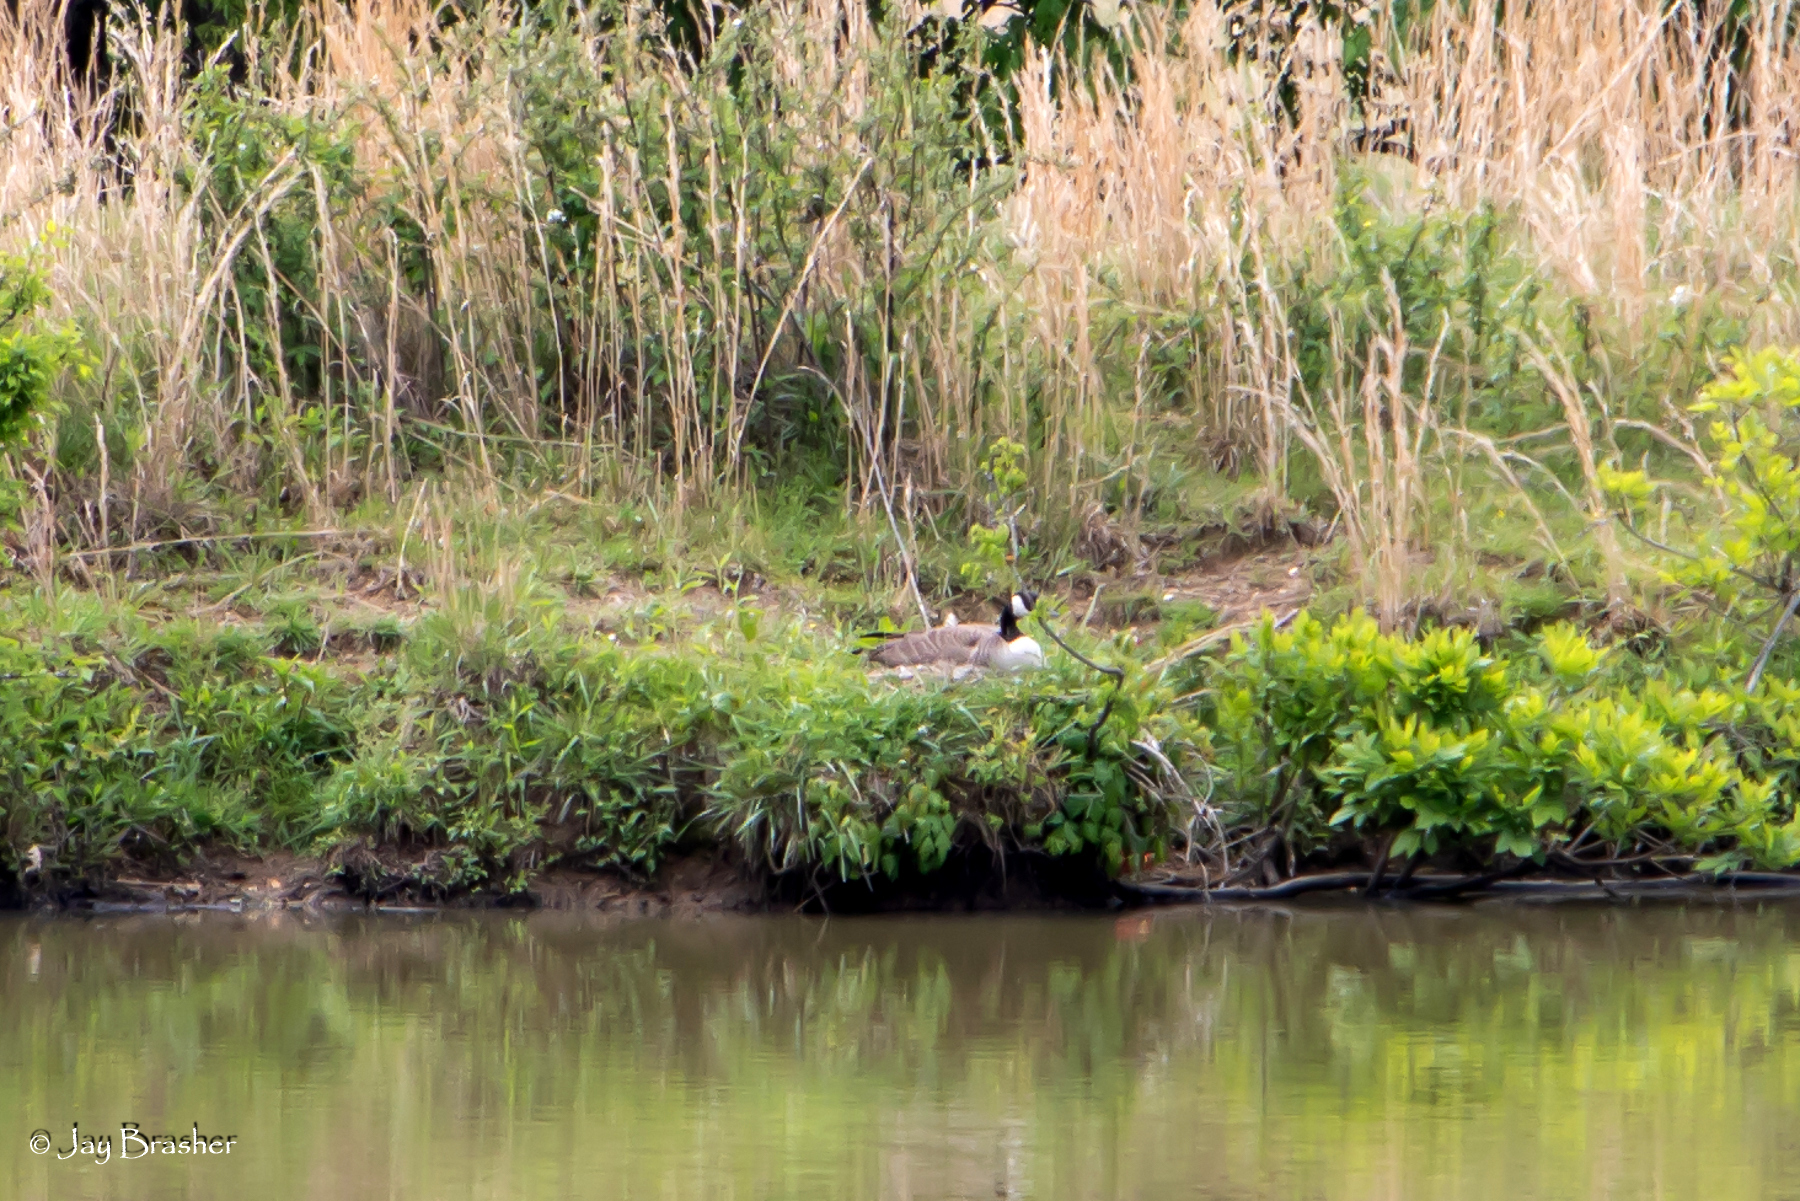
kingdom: Animalia
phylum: Chordata
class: Aves
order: Anseriformes
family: Anatidae
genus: Branta
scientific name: Branta canadensis
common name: Canada goose
